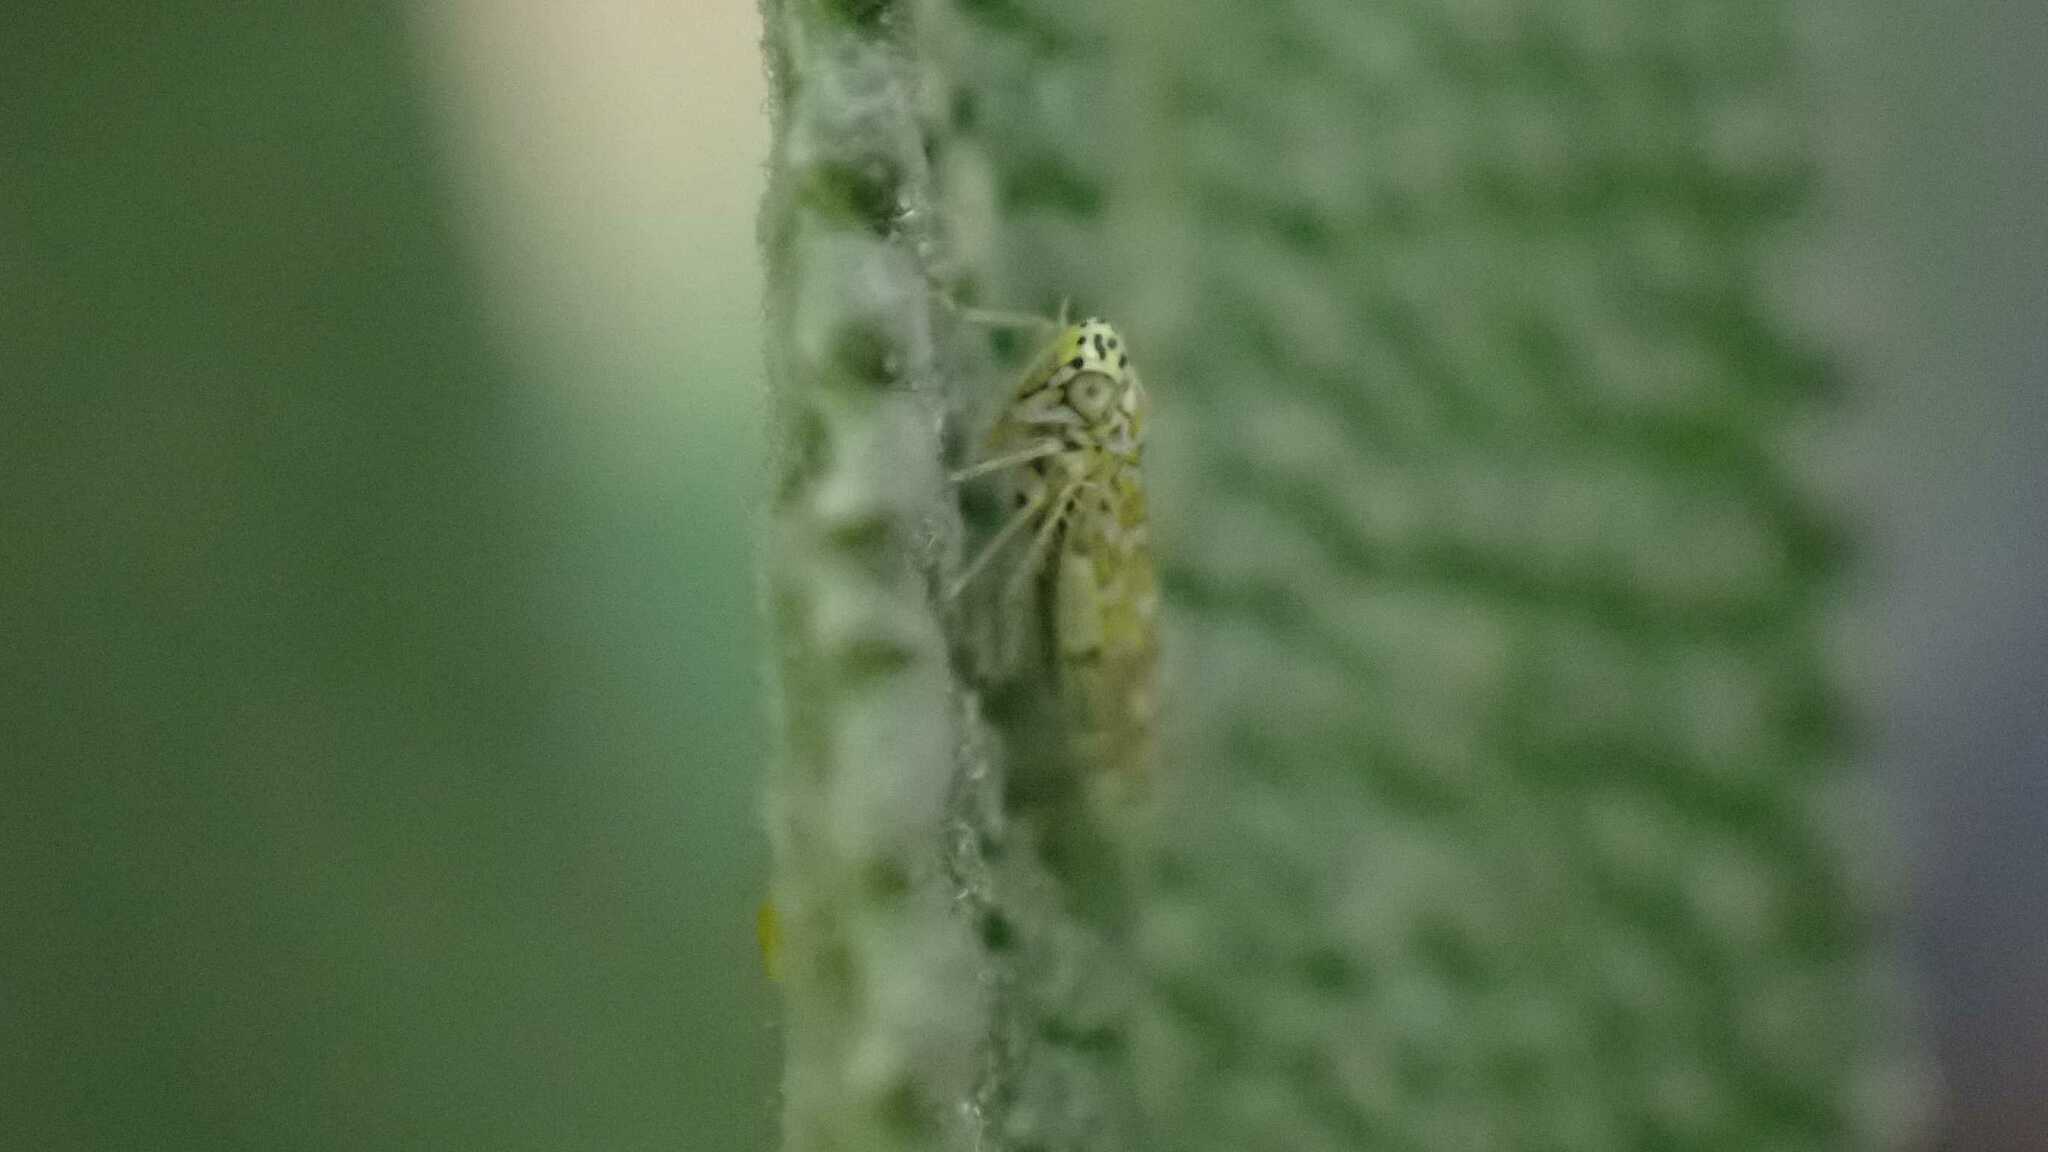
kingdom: Animalia
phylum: Arthropoda
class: Insecta
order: Hemiptera
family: Cicadellidae
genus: Eupteryx
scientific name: Eupteryx decemnotata
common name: Ligurian leafhopper
